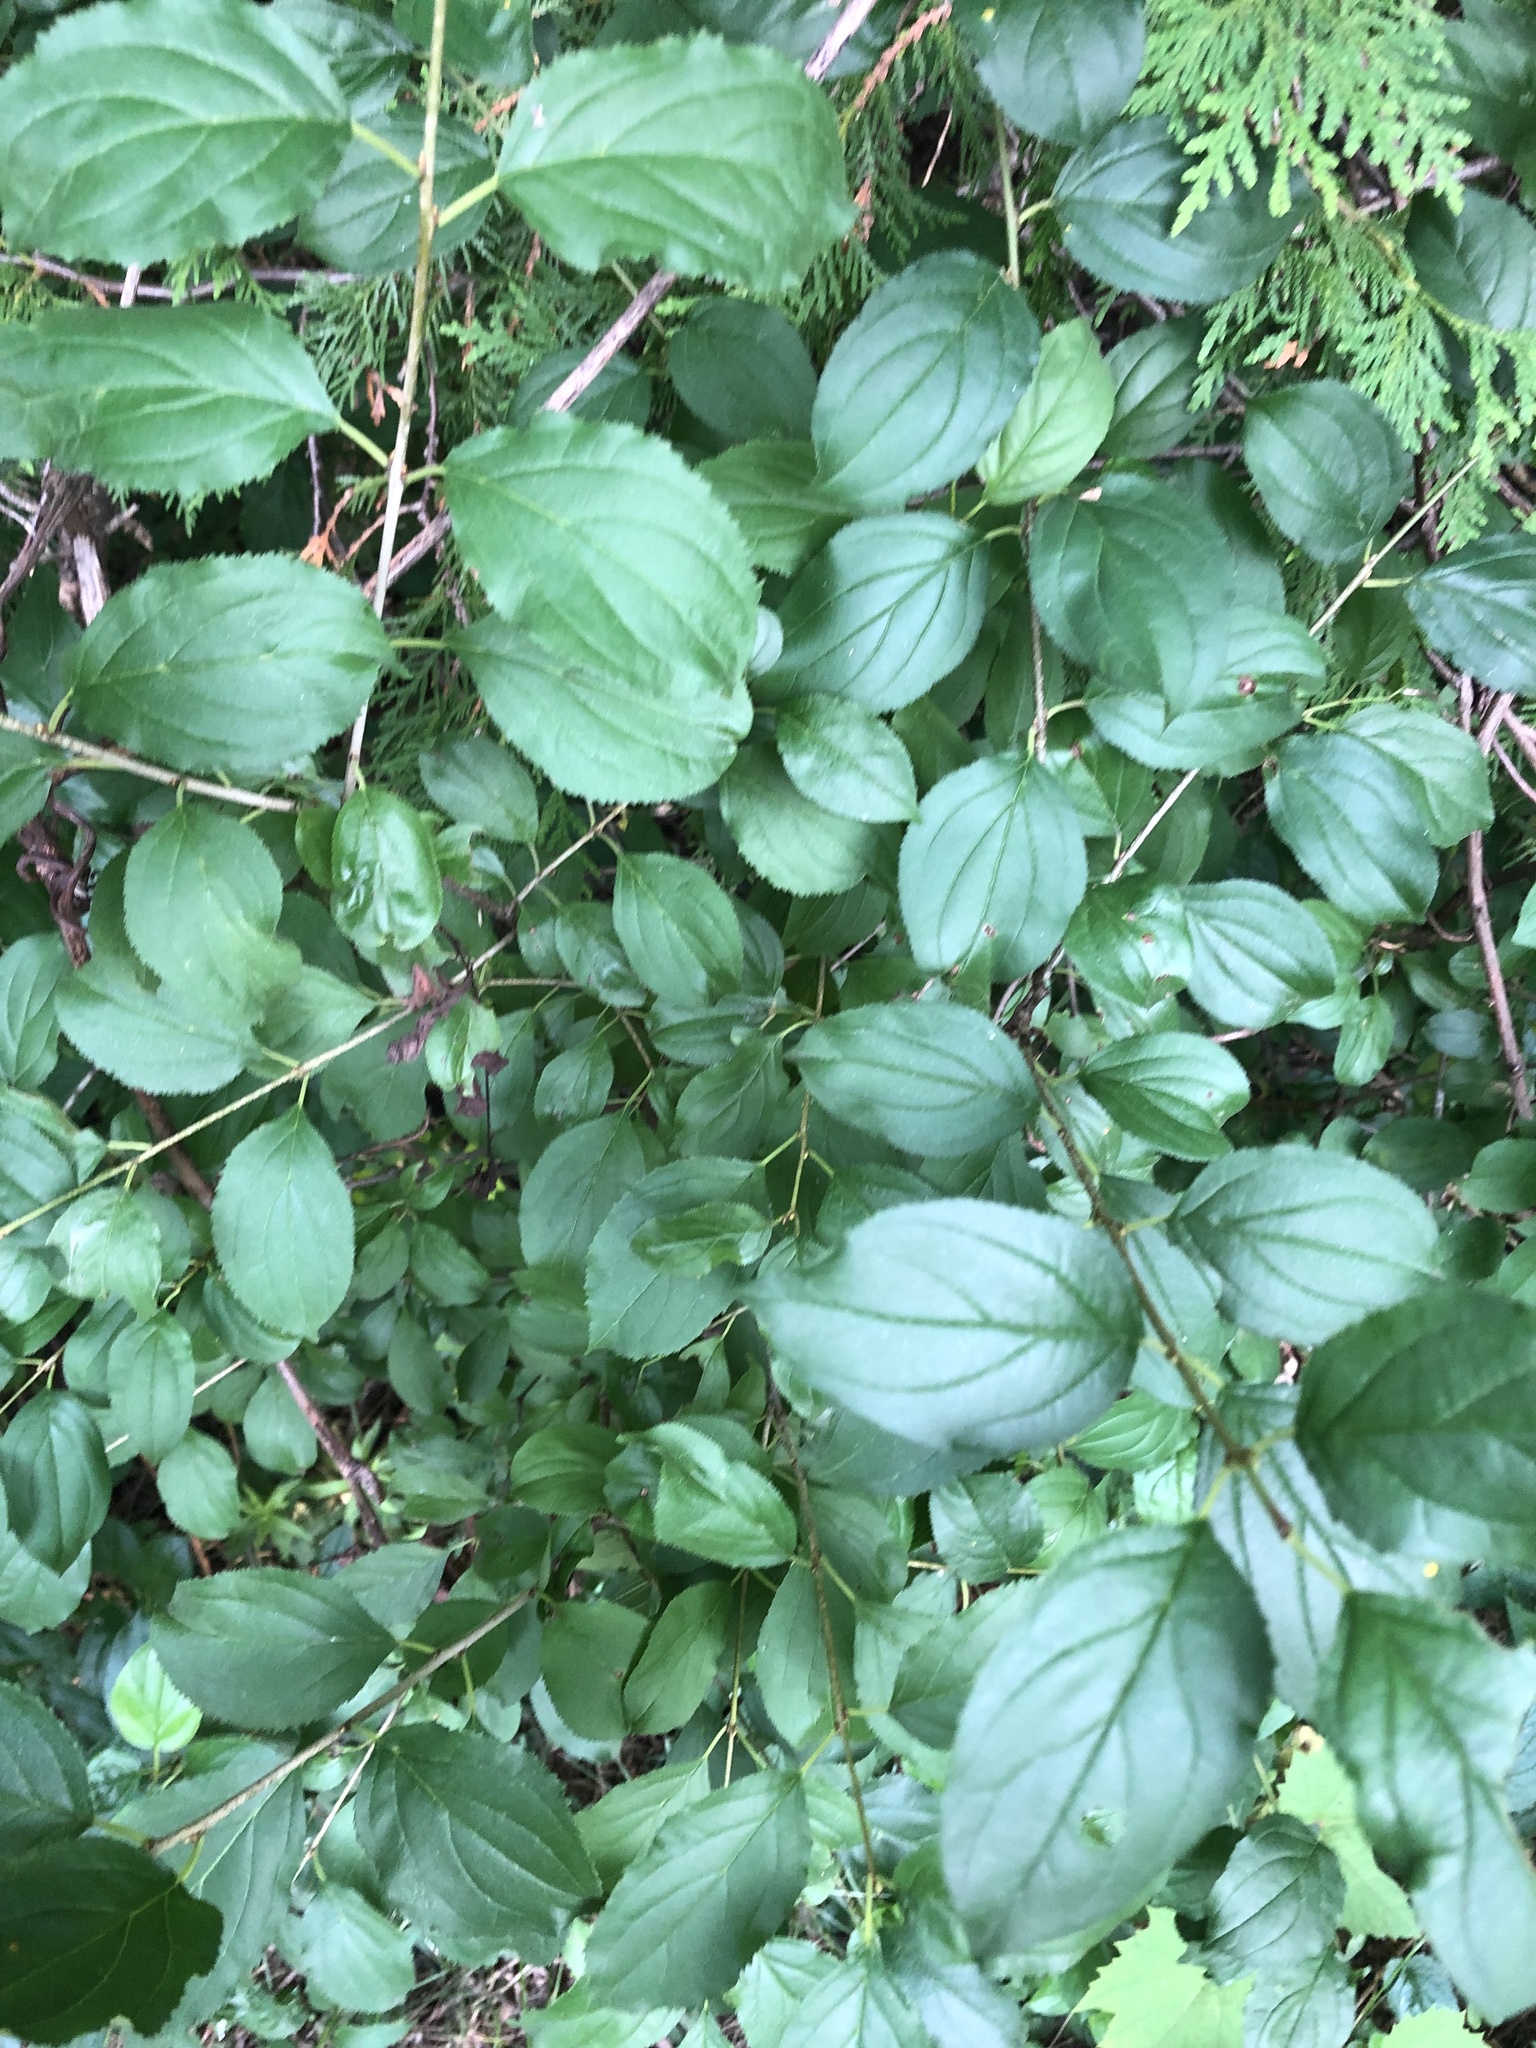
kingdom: Plantae
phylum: Tracheophyta
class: Magnoliopsida
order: Rosales
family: Rhamnaceae
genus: Rhamnus
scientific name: Rhamnus cathartica
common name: Common buckthorn
